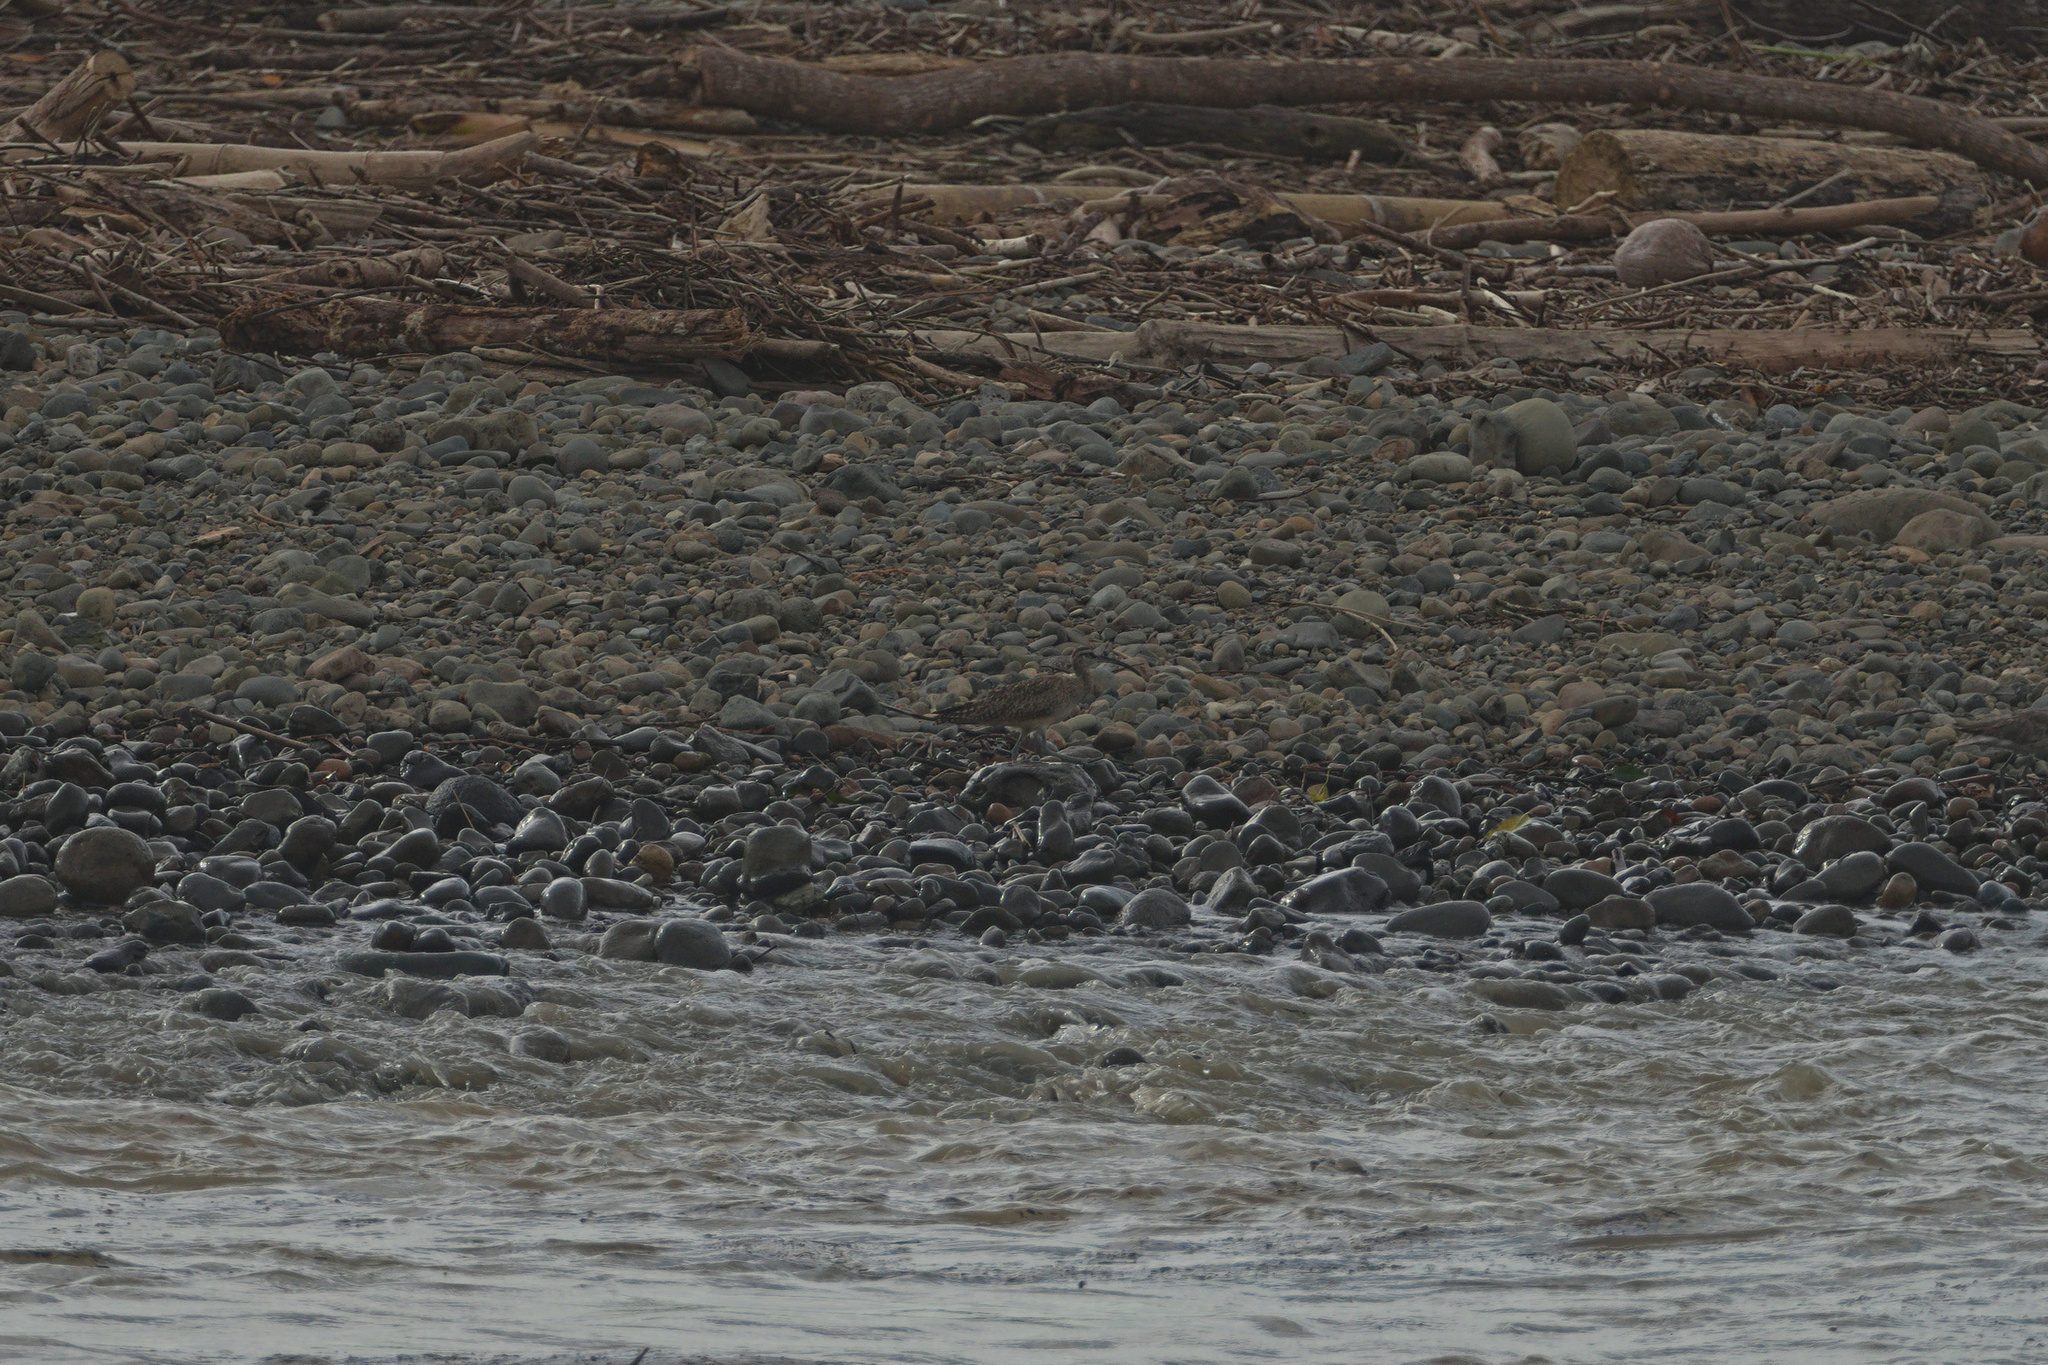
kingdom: Animalia
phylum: Chordata
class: Aves
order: Charadriiformes
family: Scolopacidae
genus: Numenius
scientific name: Numenius phaeopus
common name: Whimbrel
